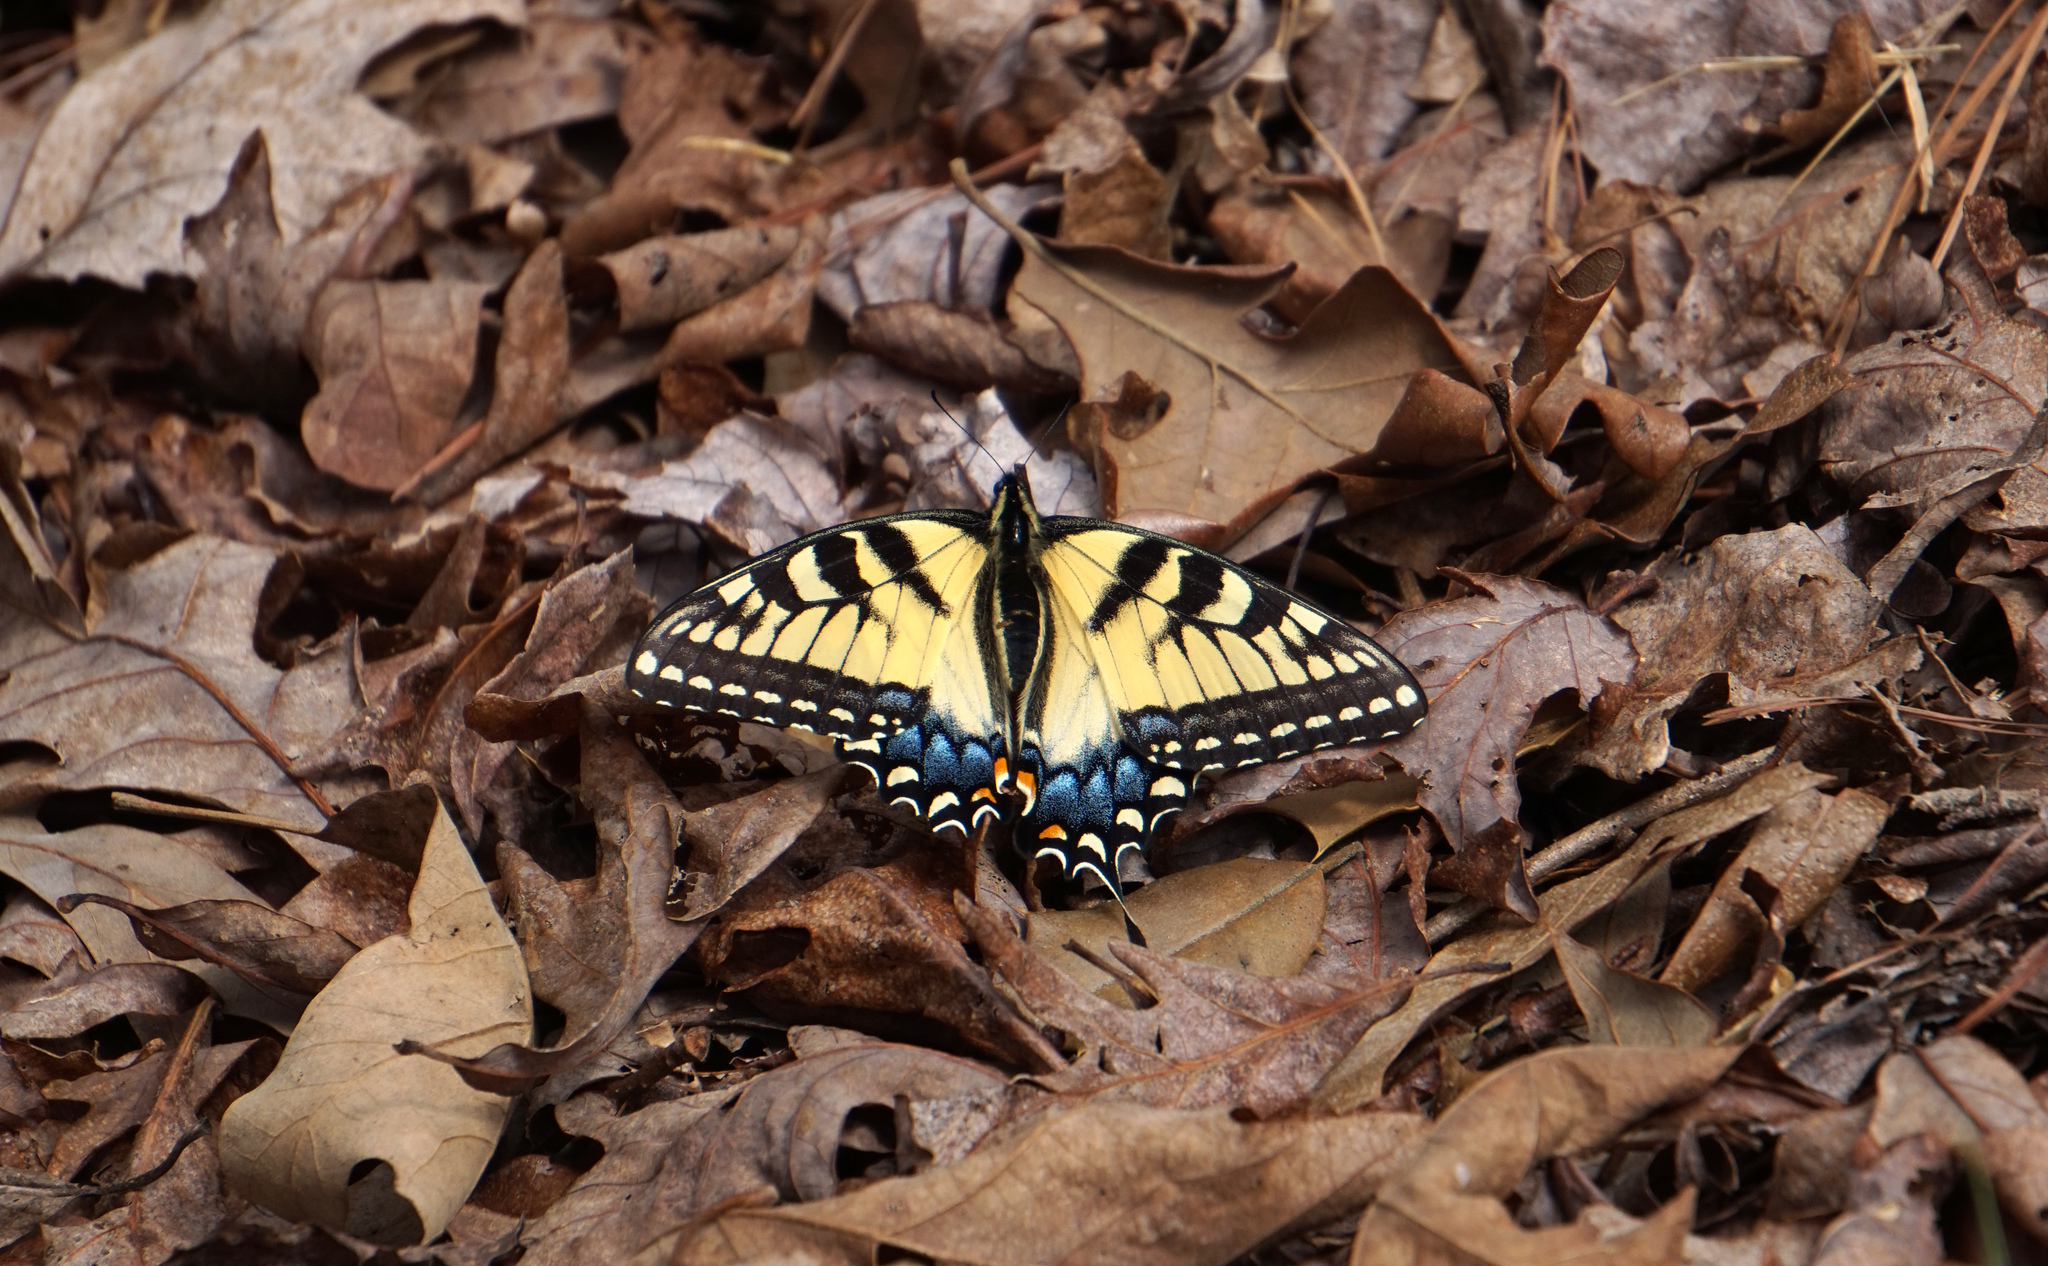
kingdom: Animalia
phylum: Arthropoda
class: Insecta
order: Lepidoptera
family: Papilionidae
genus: Papilio
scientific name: Papilio glaucus
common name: Tiger swallowtail
